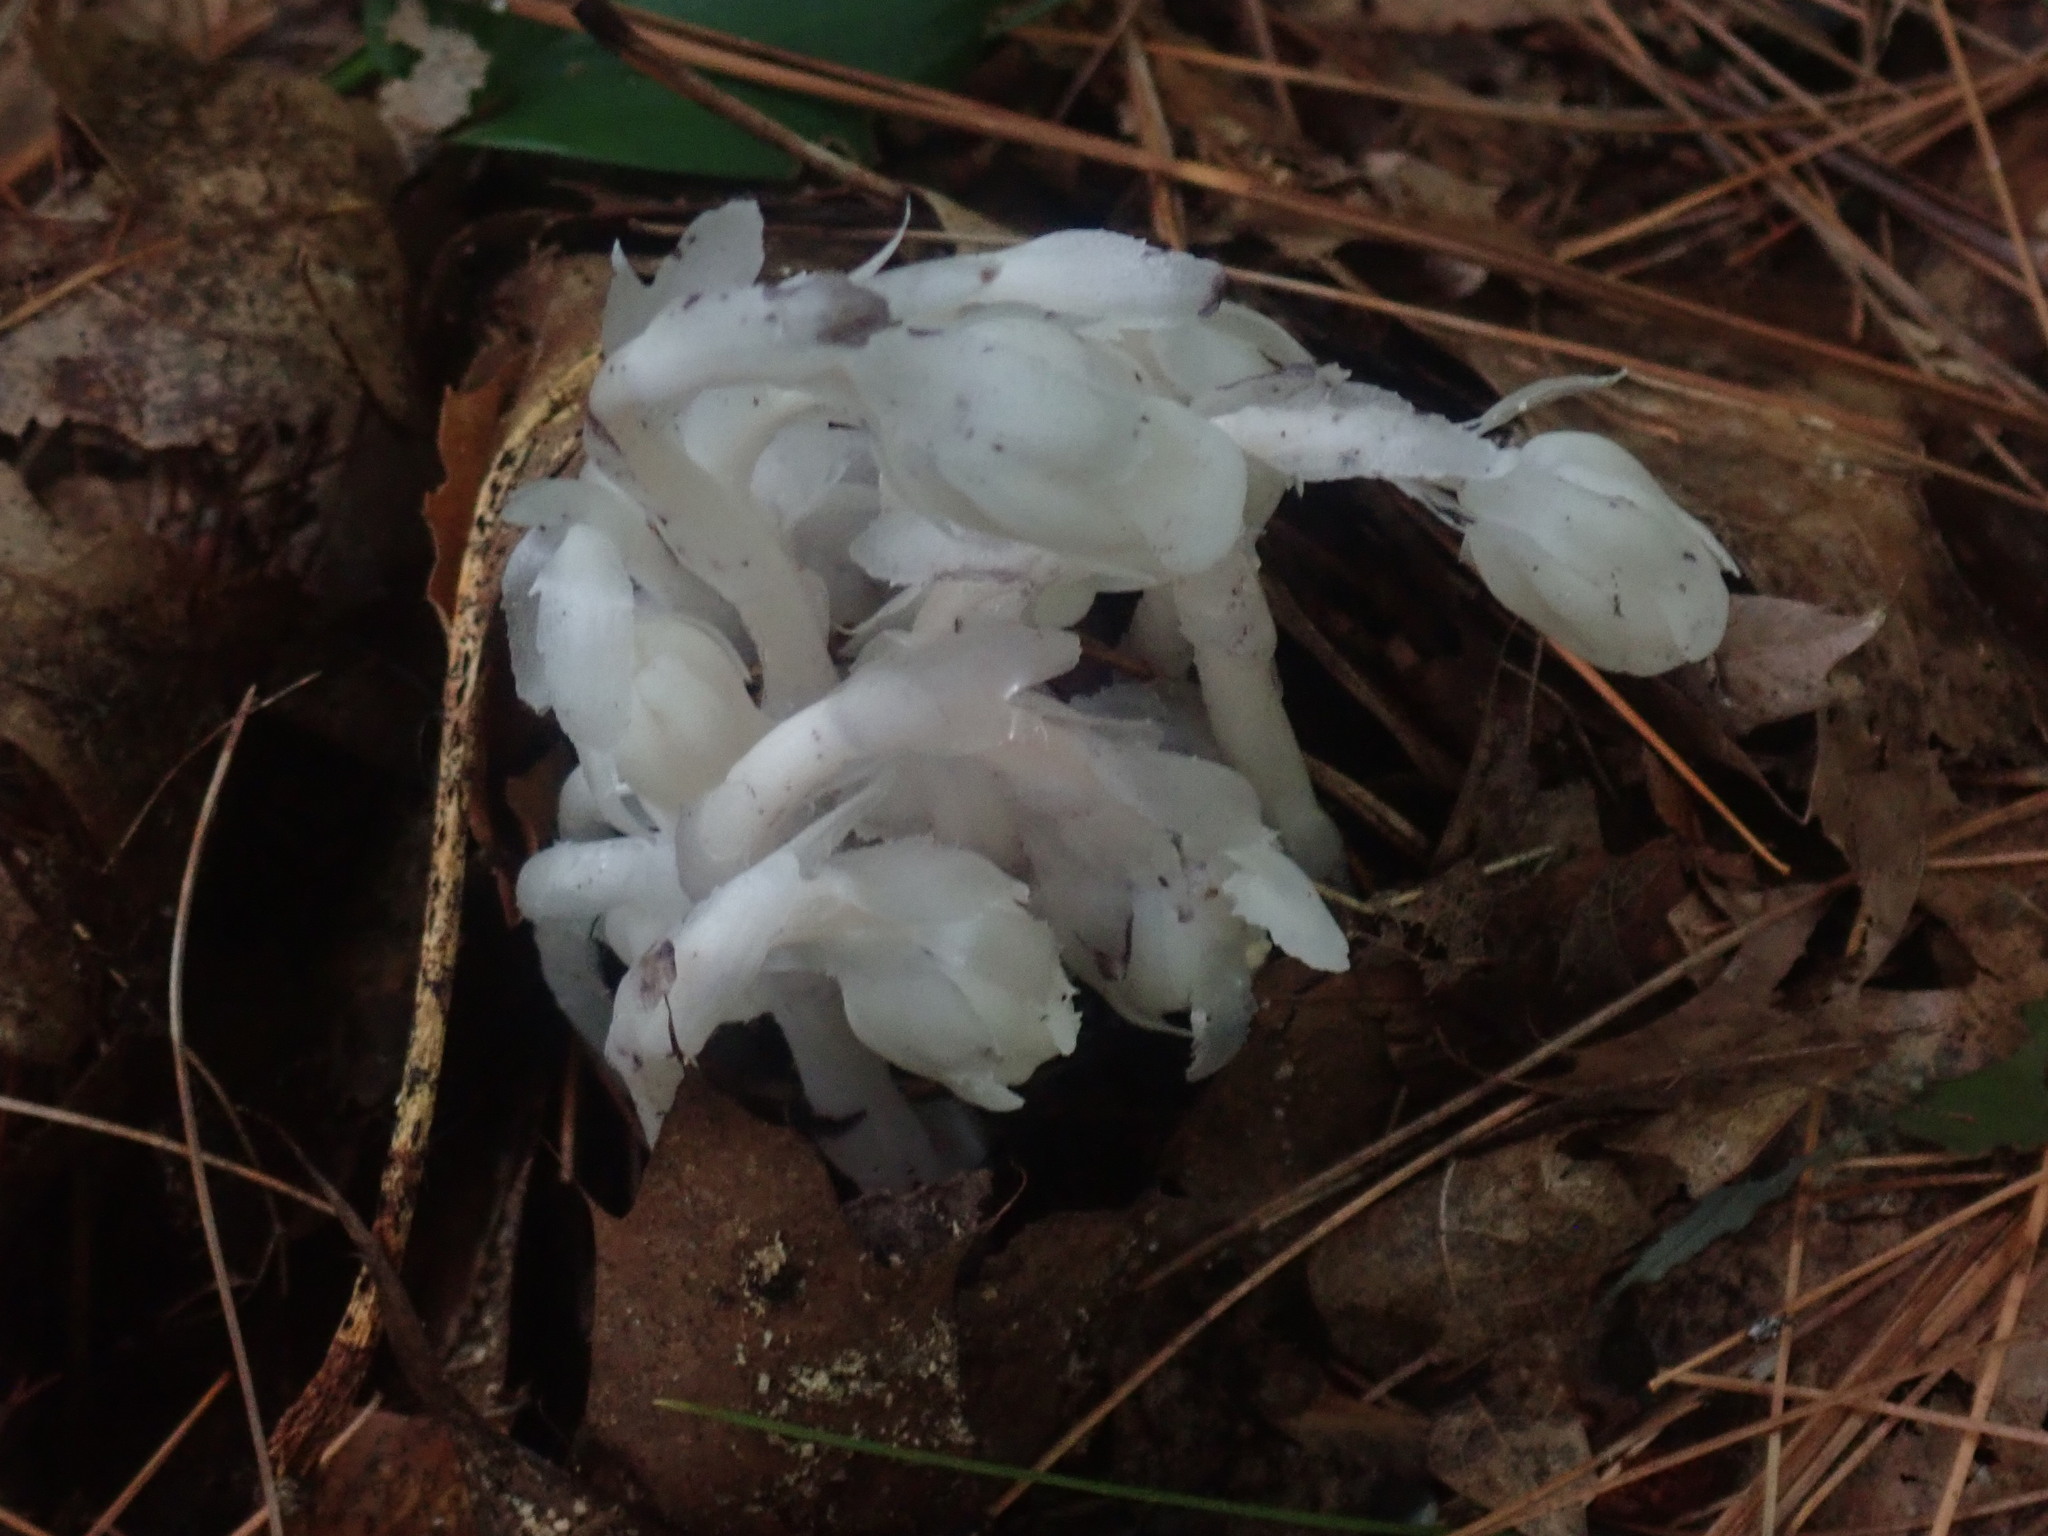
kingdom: Plantae
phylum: Tracheophyta
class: Magnoliopsida
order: Ericales
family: Ericaceae
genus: Monotropa
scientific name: Monotropa uniflora
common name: Convulsion root
